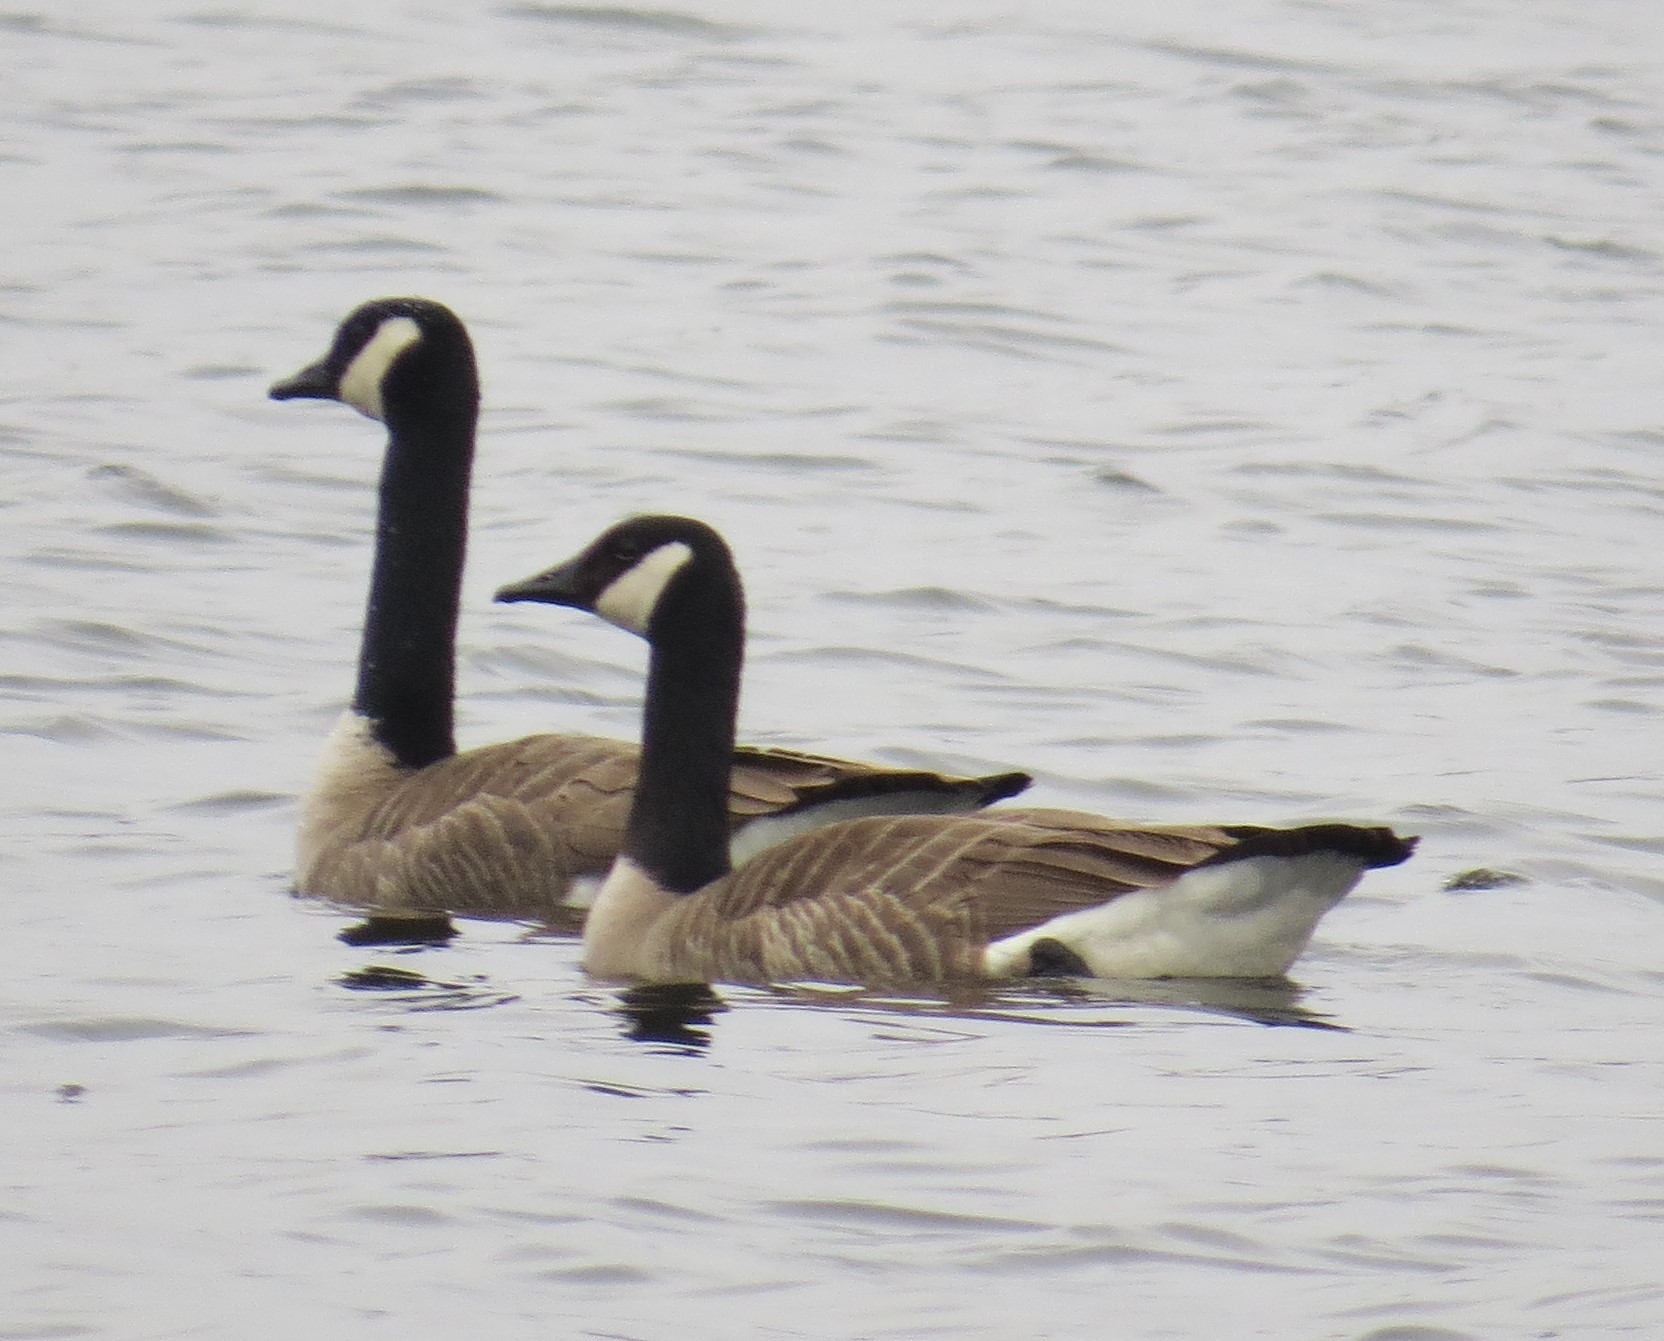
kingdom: Animalia
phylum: Chordata
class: Aves
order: Anseriformes
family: Anatidae
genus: Branta
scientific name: Branta canadensis
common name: Canada goose
